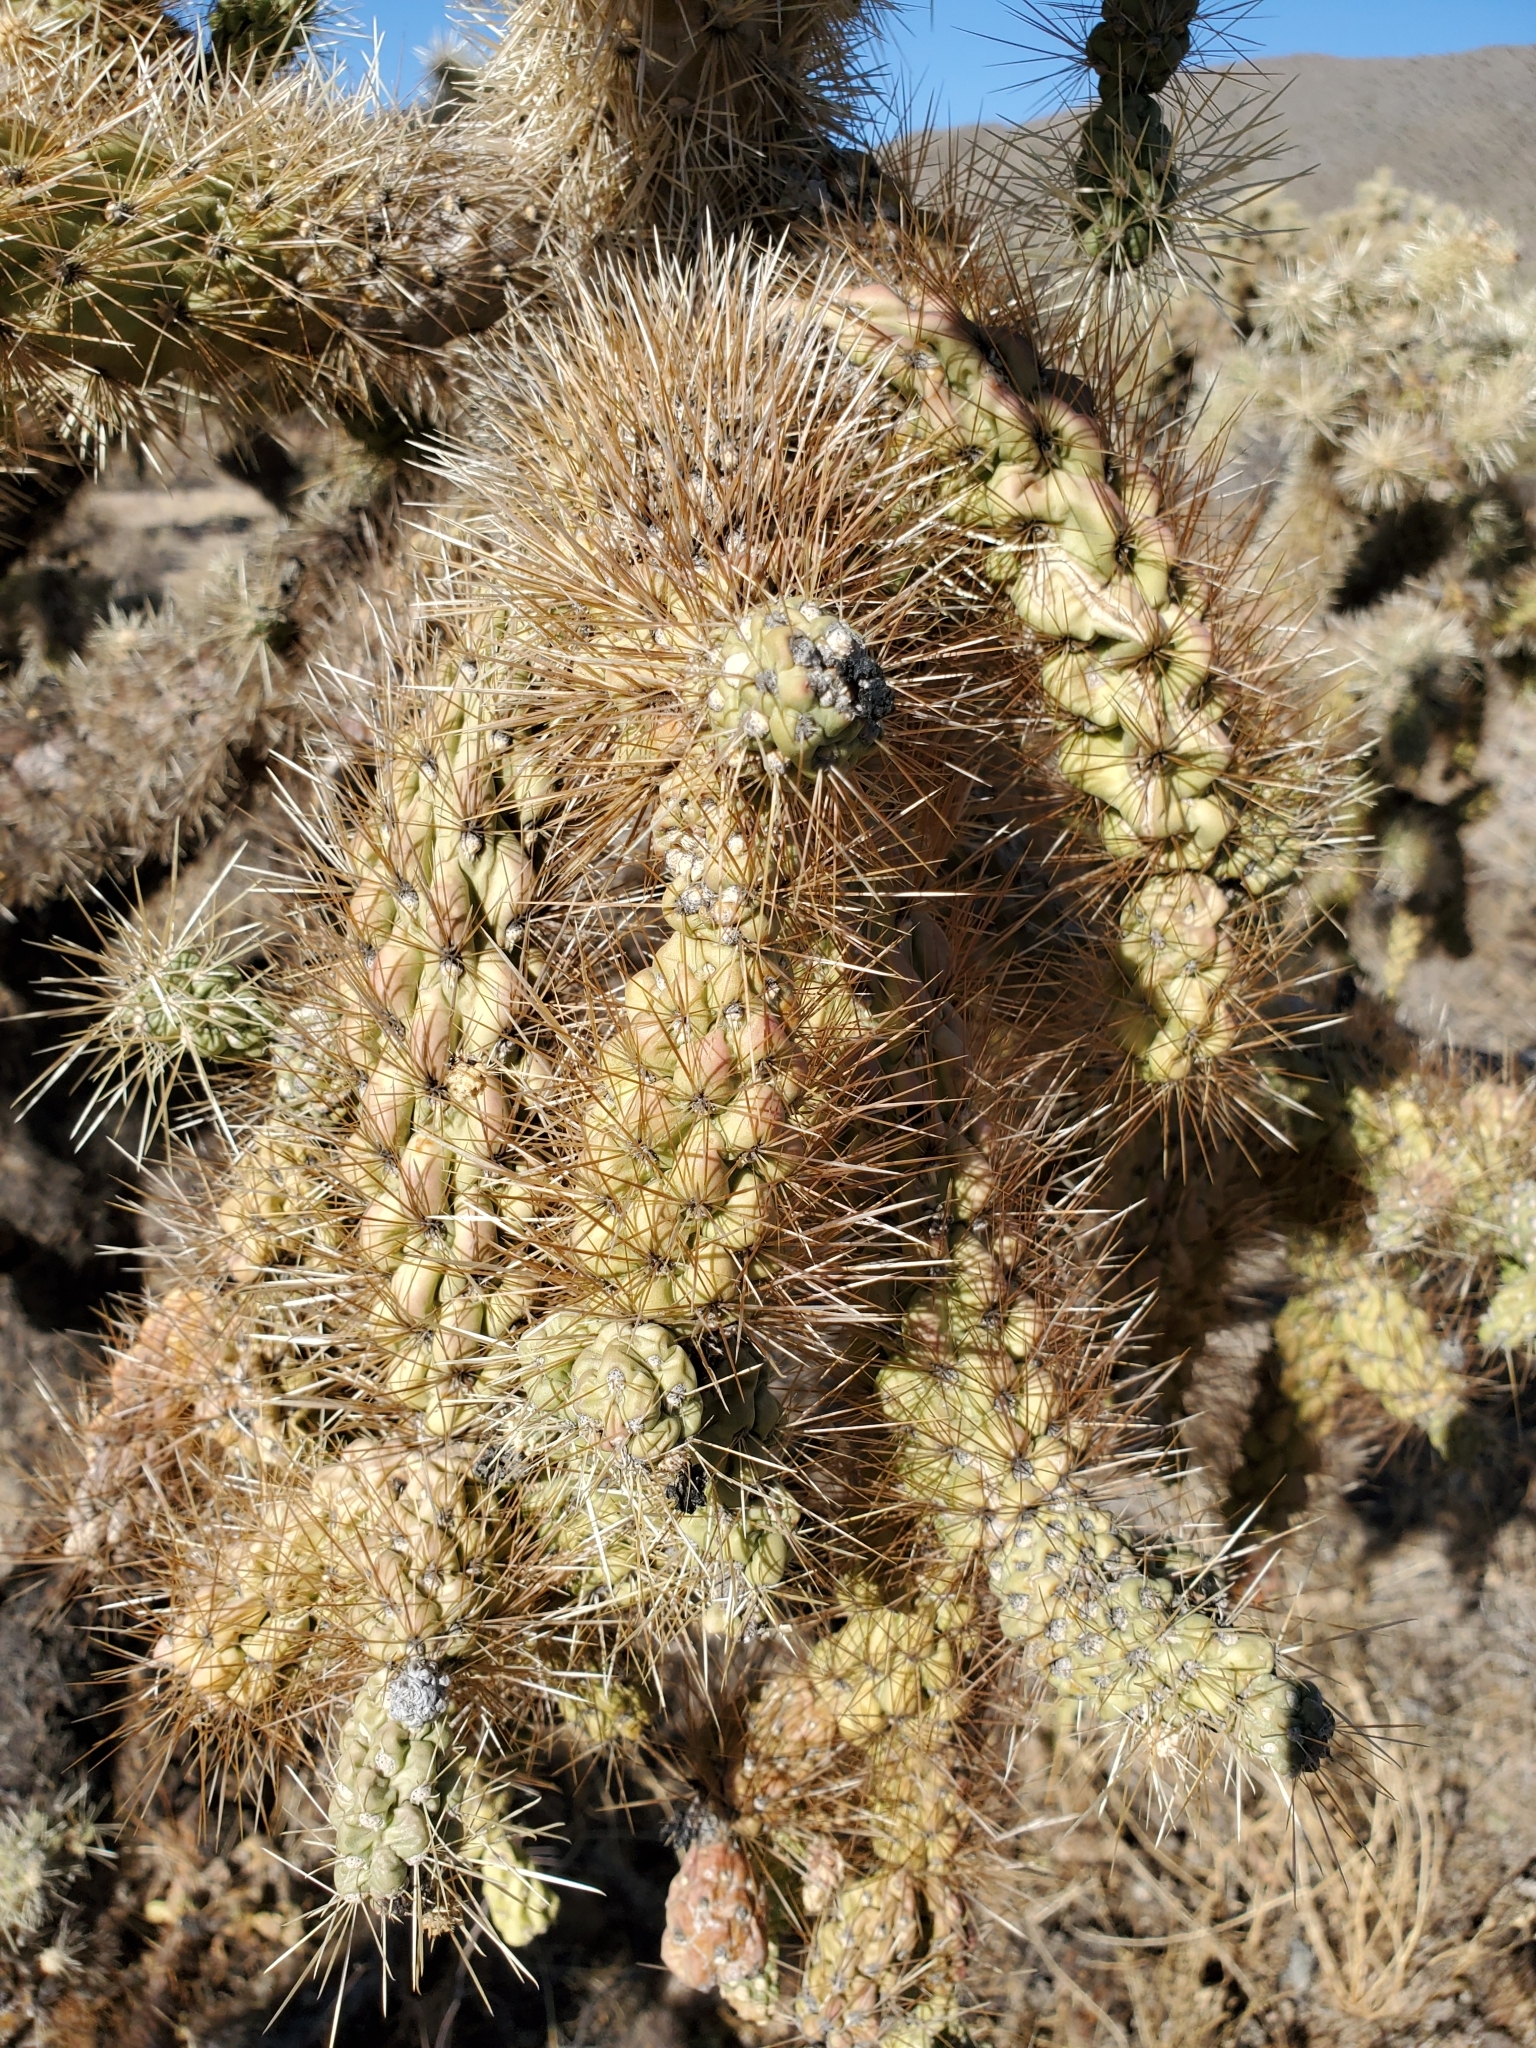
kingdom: Plantae
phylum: Tracheophyta
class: Magnoliopsida
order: Caryophyllales
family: Cactaceae
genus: Cylindropuntia
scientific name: Cylindropuntia fulgida
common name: Jumping cholla
